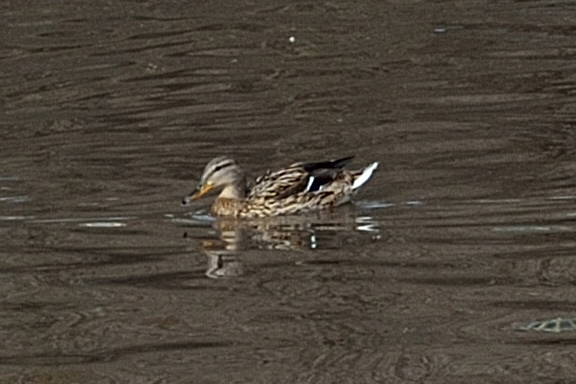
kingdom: Animalia
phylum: Chordata
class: Aves
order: Anseriformes
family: Anatidae
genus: Anas
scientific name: Anas platyrhynchos
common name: Mallard
